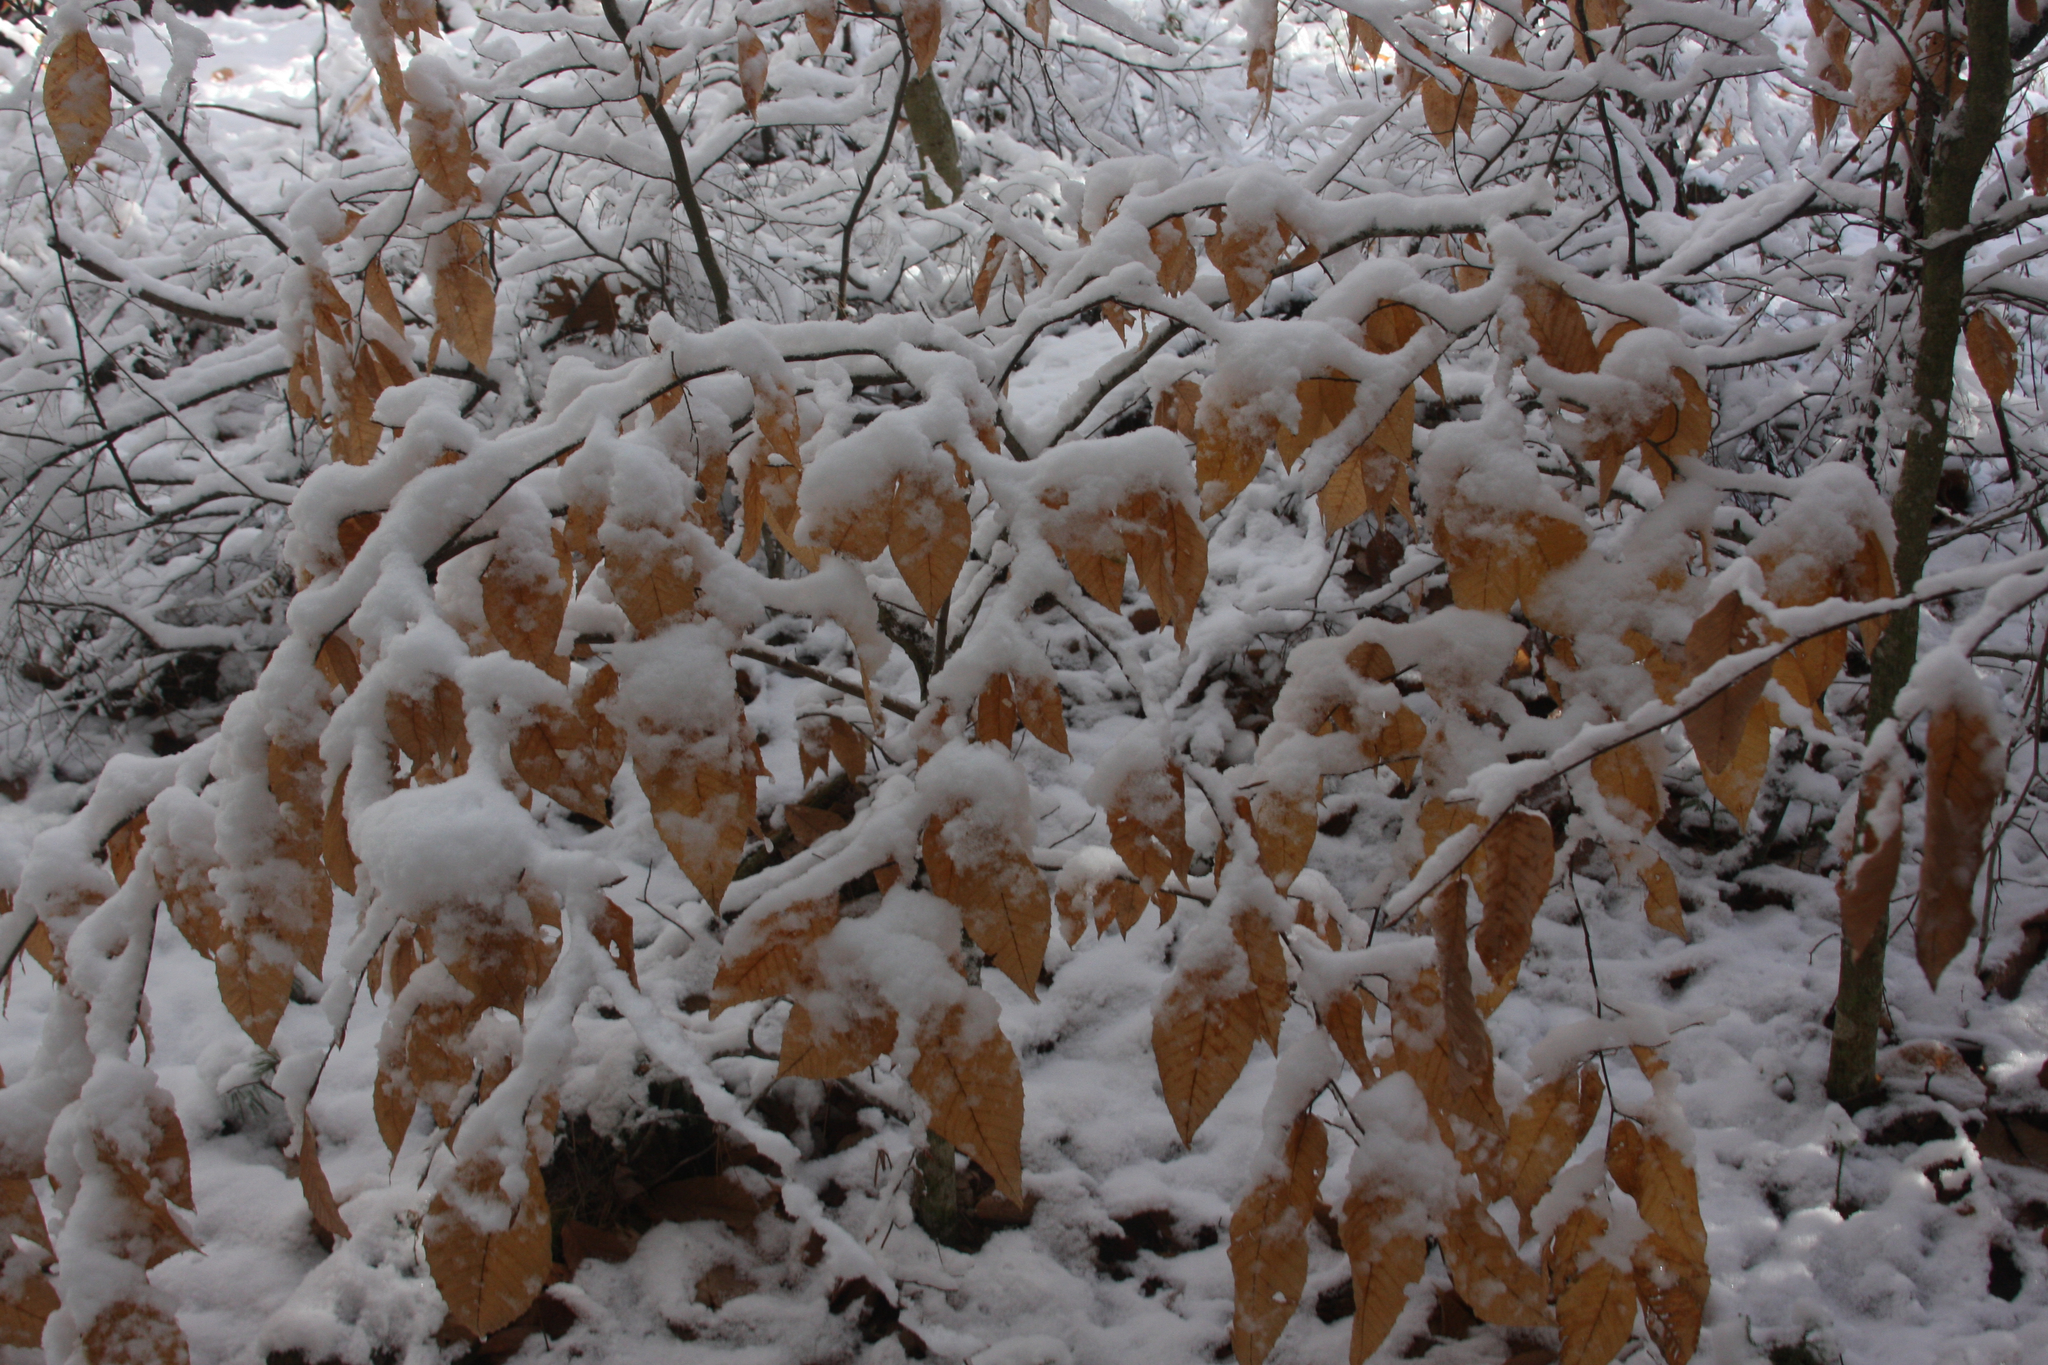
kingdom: Plantae
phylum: Tracheophyta
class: Magnoliopsida
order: Fagales
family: Fagaceae
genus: Fagus
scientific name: Fagus grandifolia
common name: American beech
